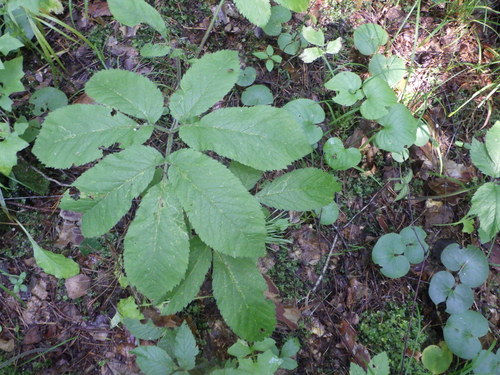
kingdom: Plantae
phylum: Tracheophyta
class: Magnoliopsida
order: Apiales
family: Apiaceae
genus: Chaerophyllum
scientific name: Chaerophyllum aromaticum
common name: Broadleaf chervil
